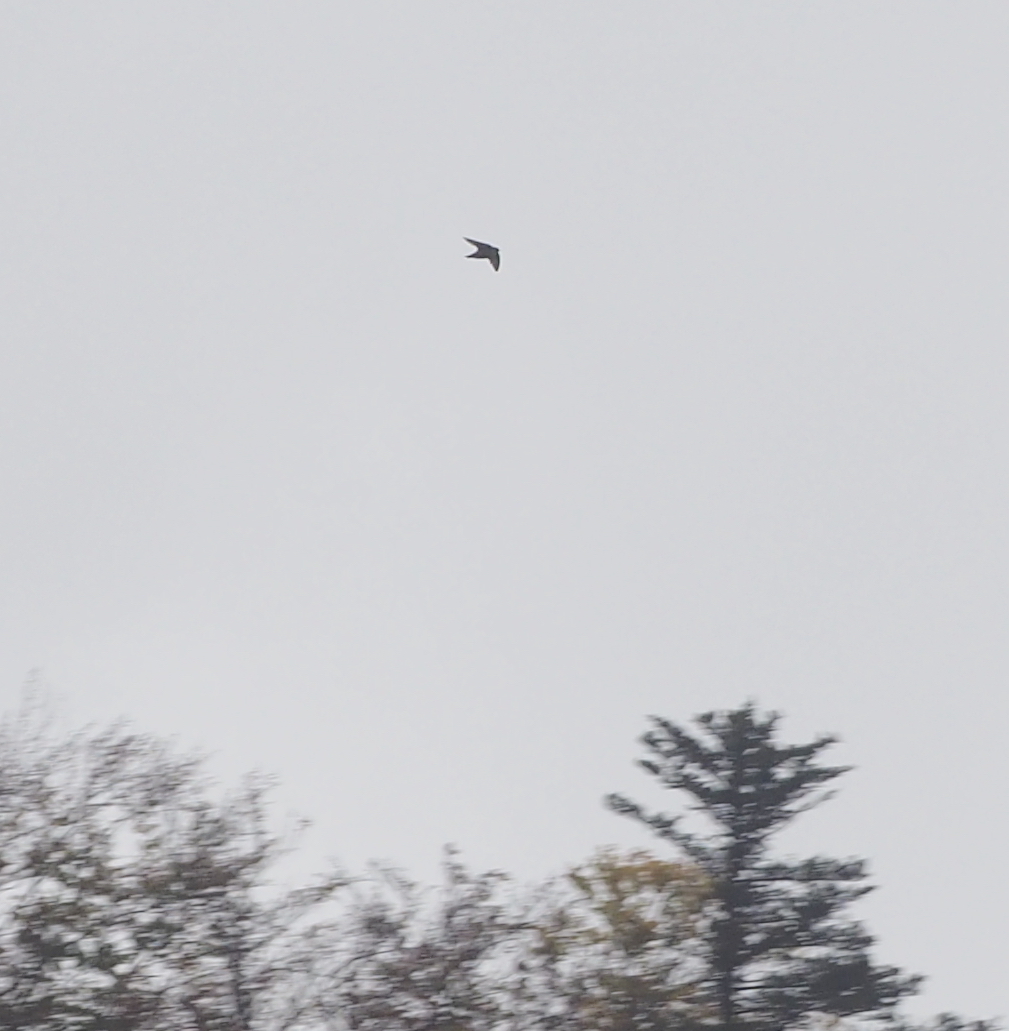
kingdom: Animalia
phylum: Chordata
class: Aves
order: Passeriformes
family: Hirundinidae
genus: Ptyonoprogne
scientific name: Ptyonoprogne rupestris
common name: Eurasian crag martin
